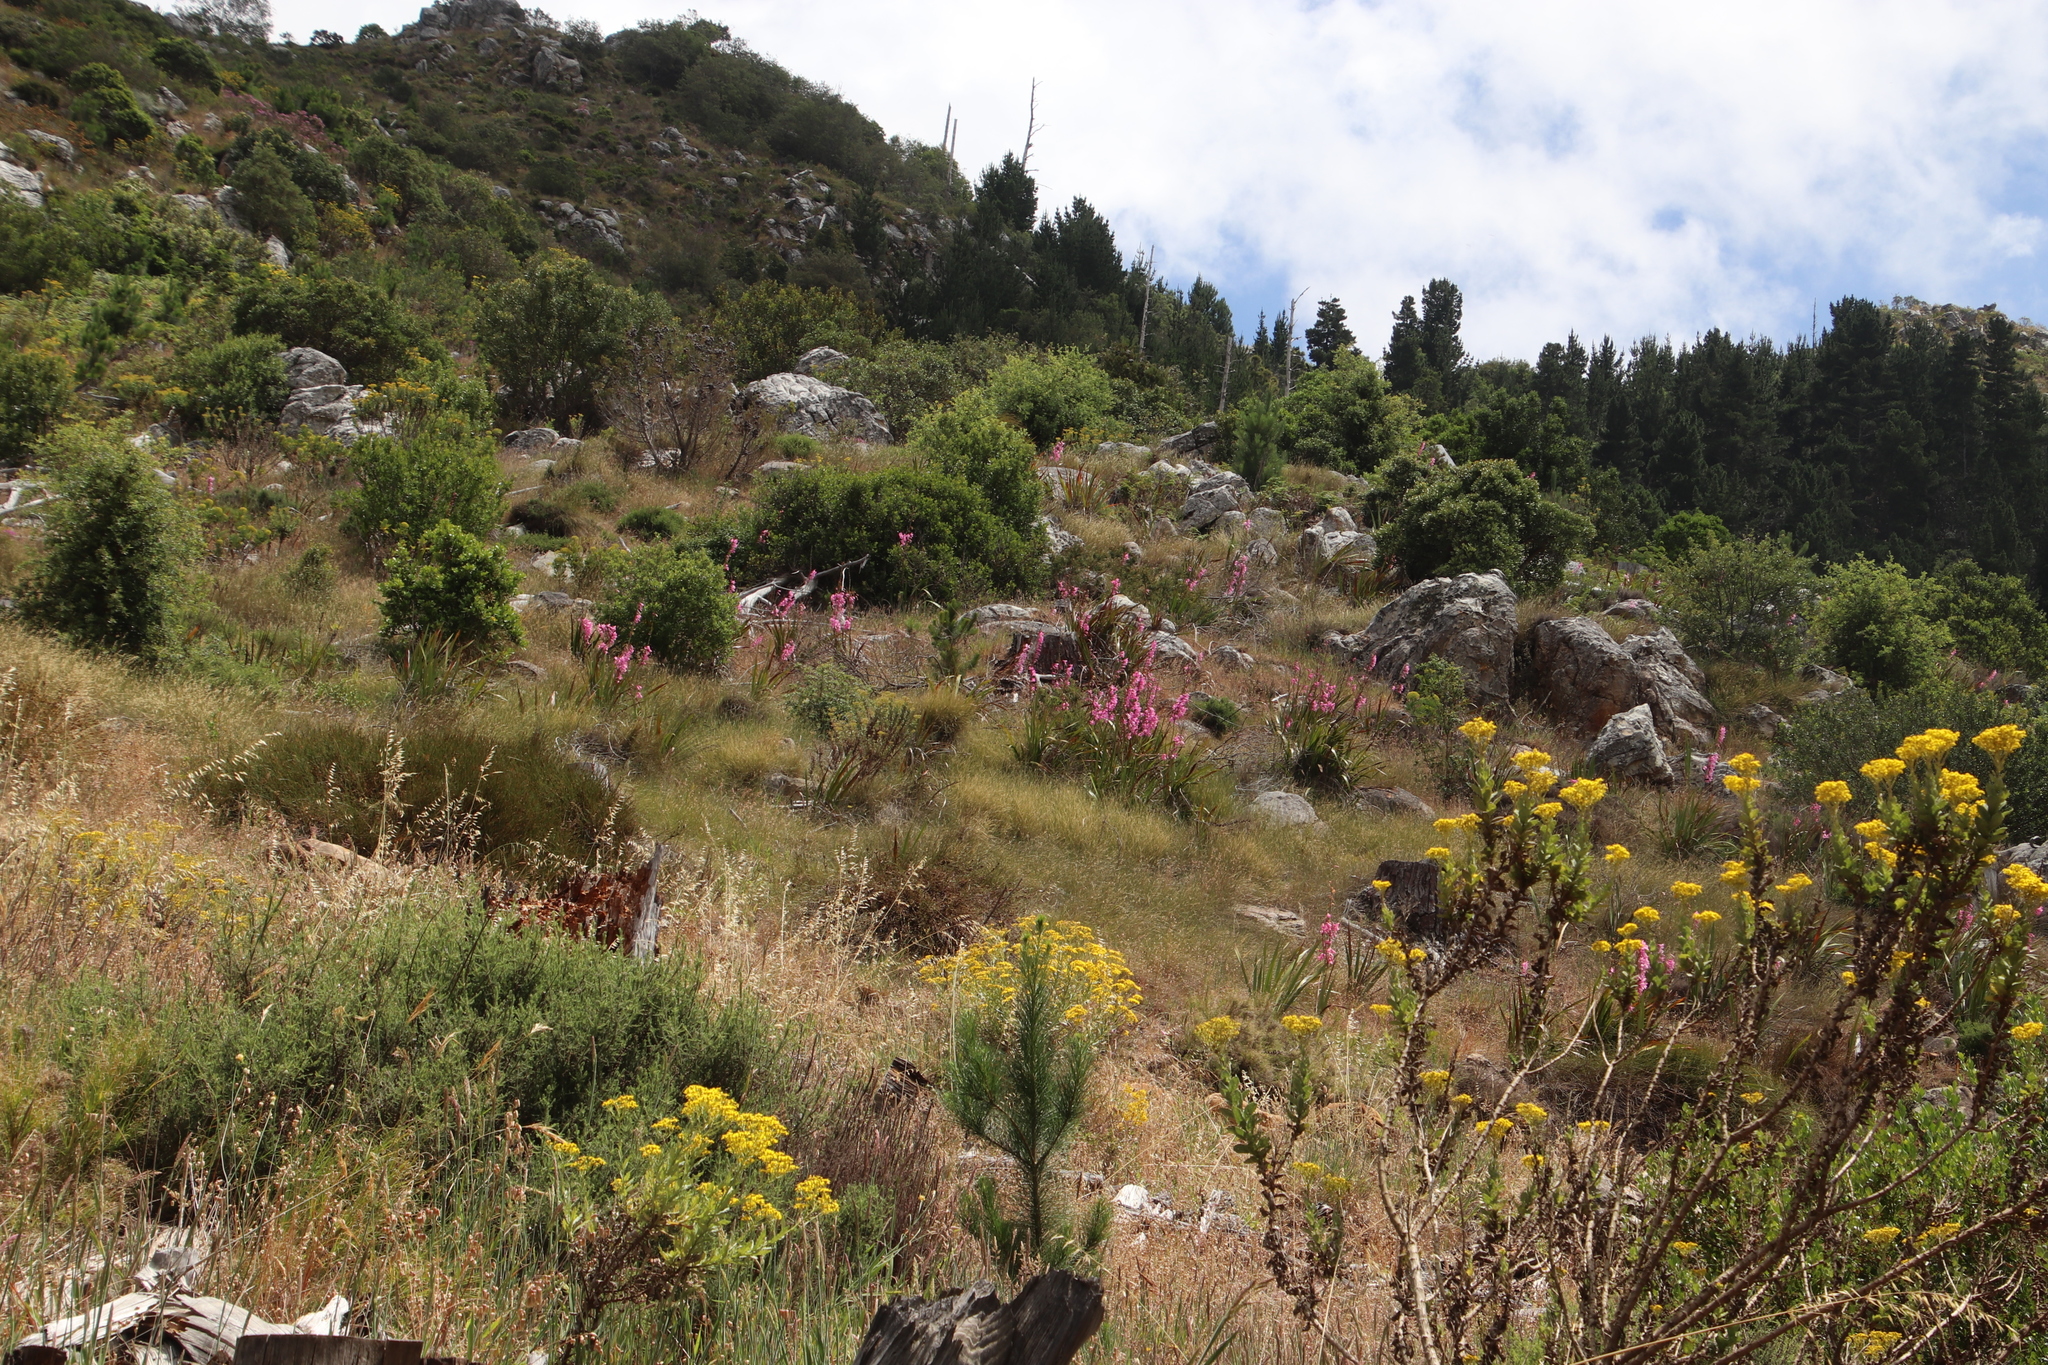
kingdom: Plantae
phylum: Tracheophyta
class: Magnoliopsida
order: Asterales
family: Asteraceae
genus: Senecio
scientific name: Senecio rigidus
